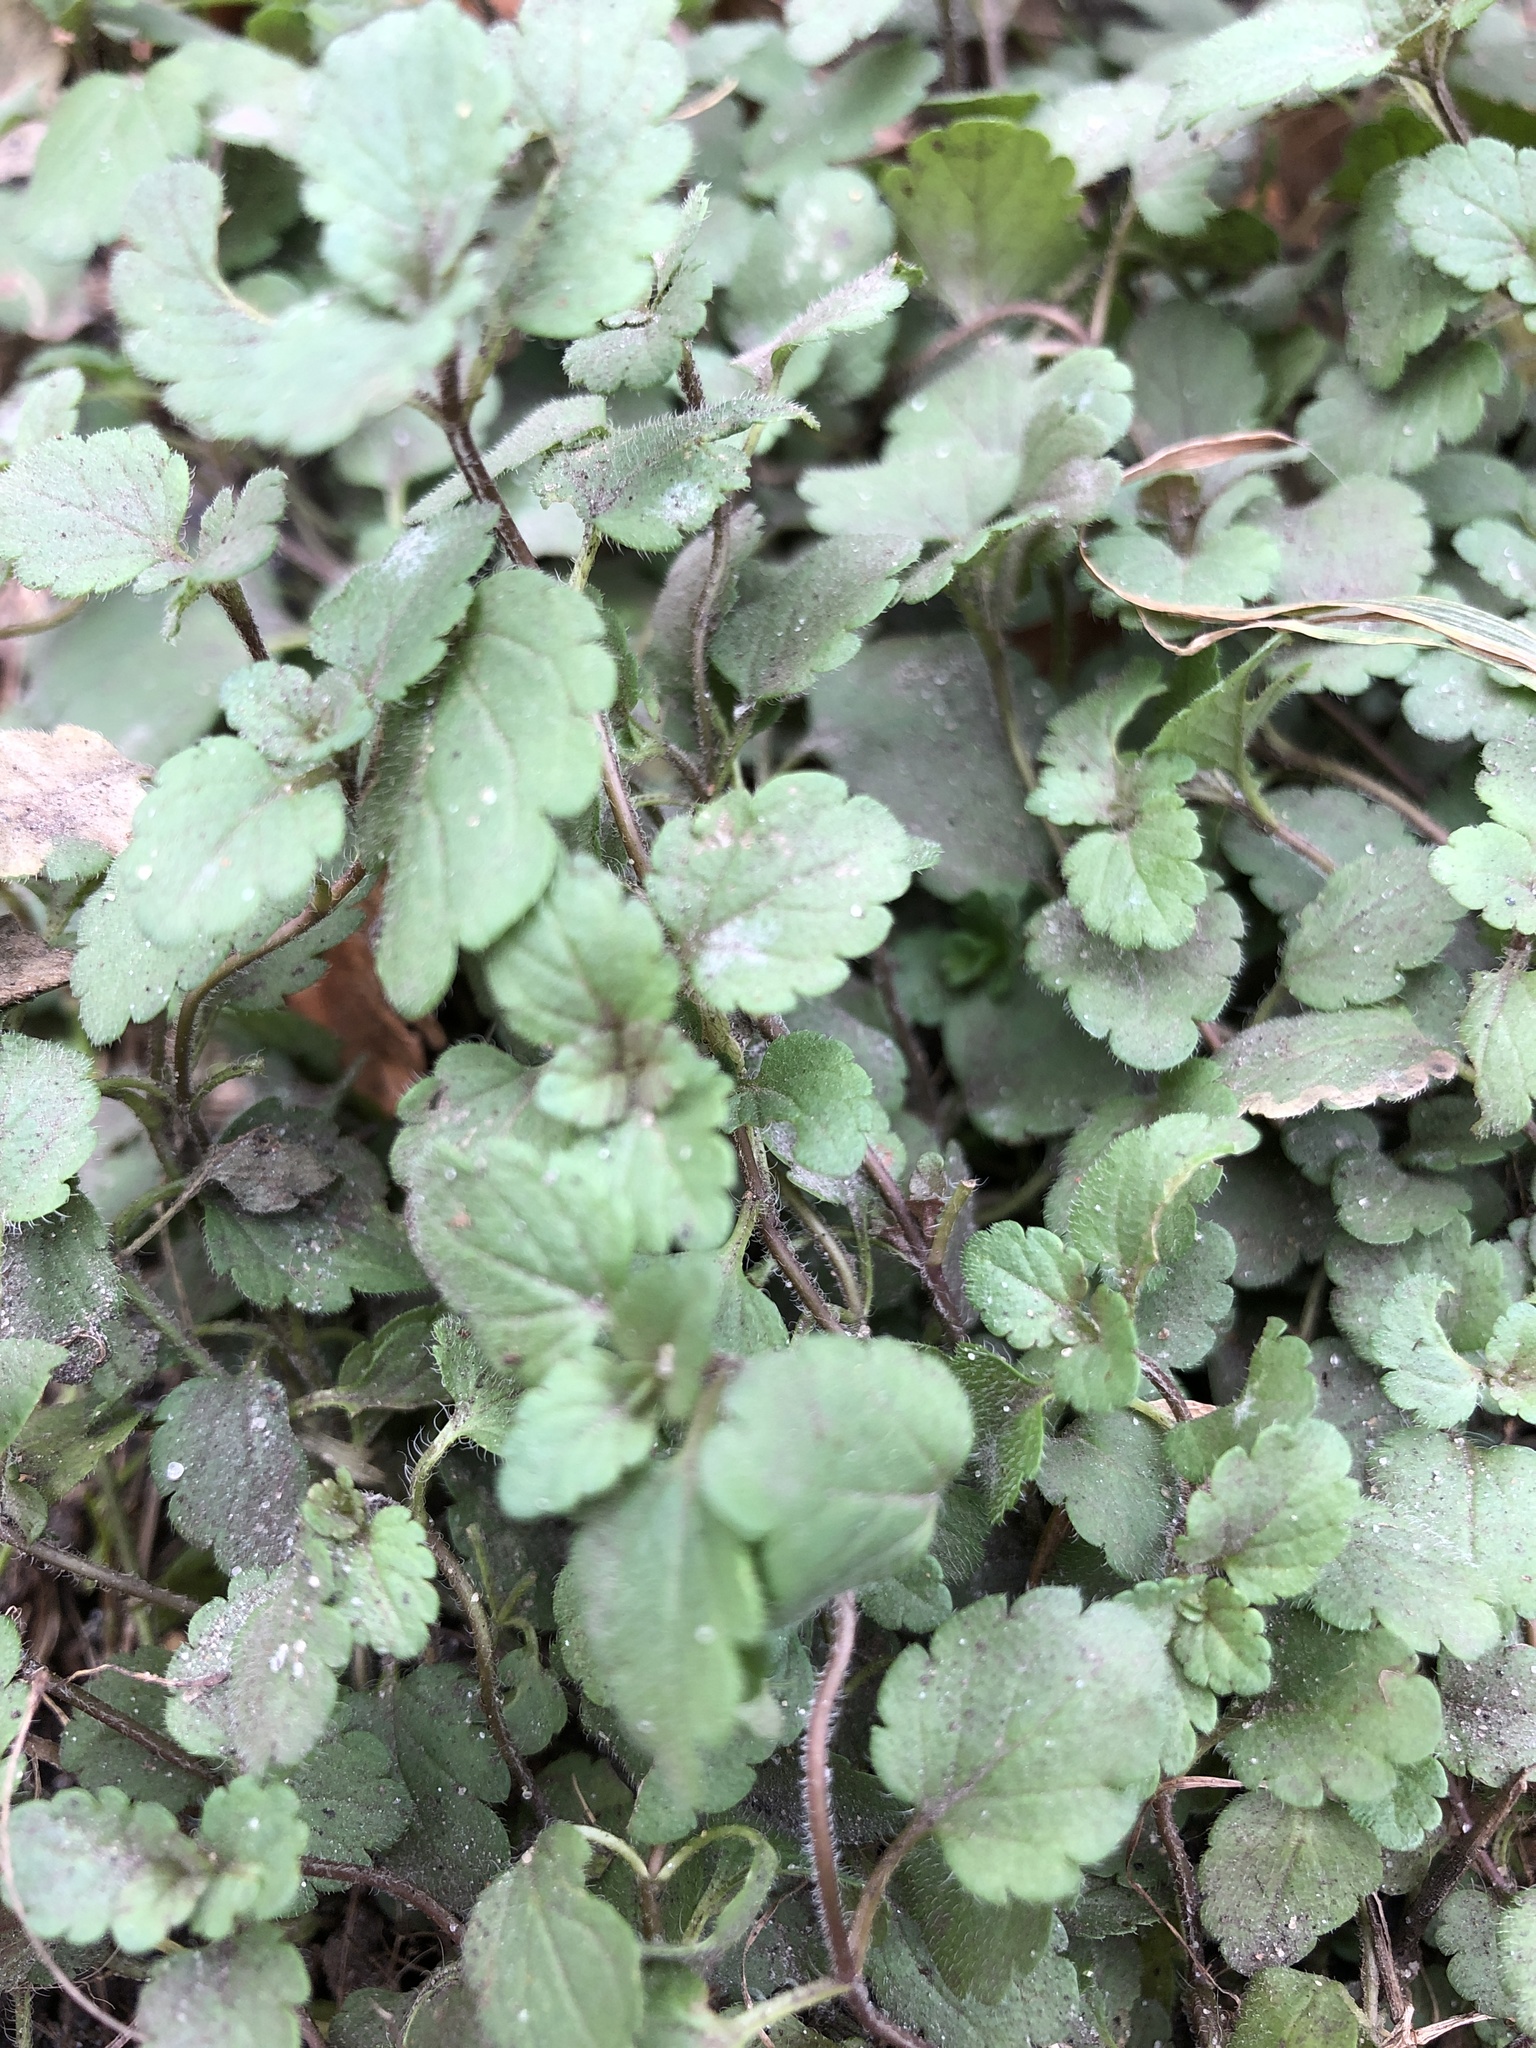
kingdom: Plantae
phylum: Tracheophyta
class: Magnoliopsida
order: Lamiales
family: Plantaginaceae
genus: Veronica
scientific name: Veronica chamaedrys
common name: Germander speedwell
